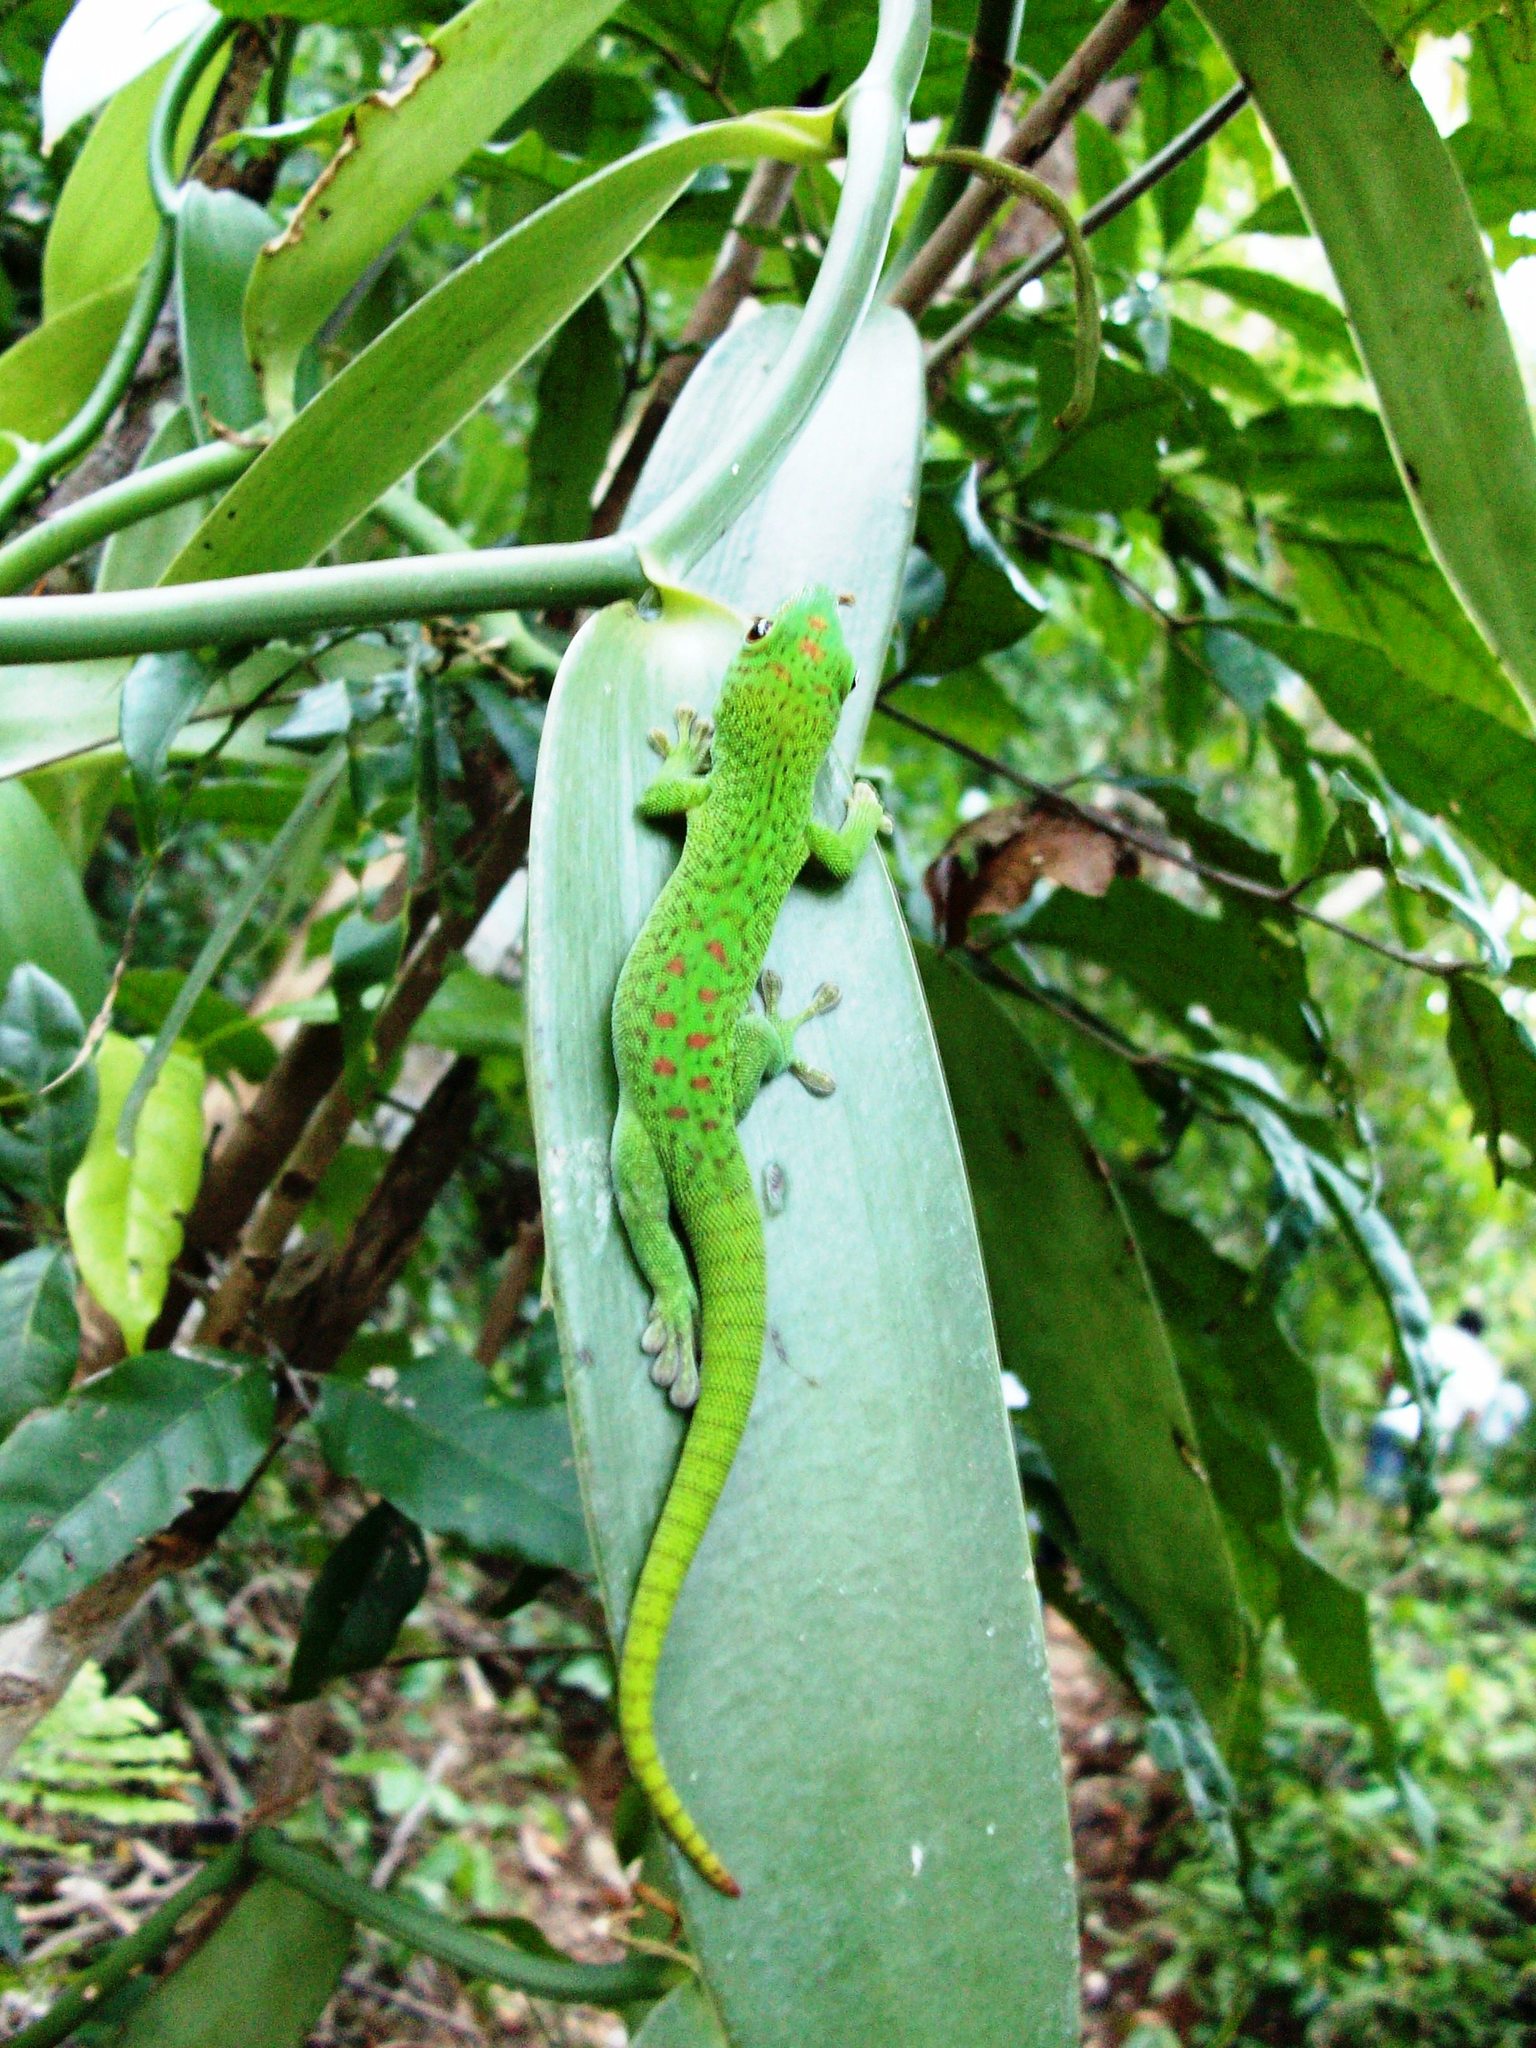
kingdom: Animalia
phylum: Chordata
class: Squamata
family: Gekkonidae
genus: Phelsuma
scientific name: Phelsuma grandis
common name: Madagascar giant day gecko
